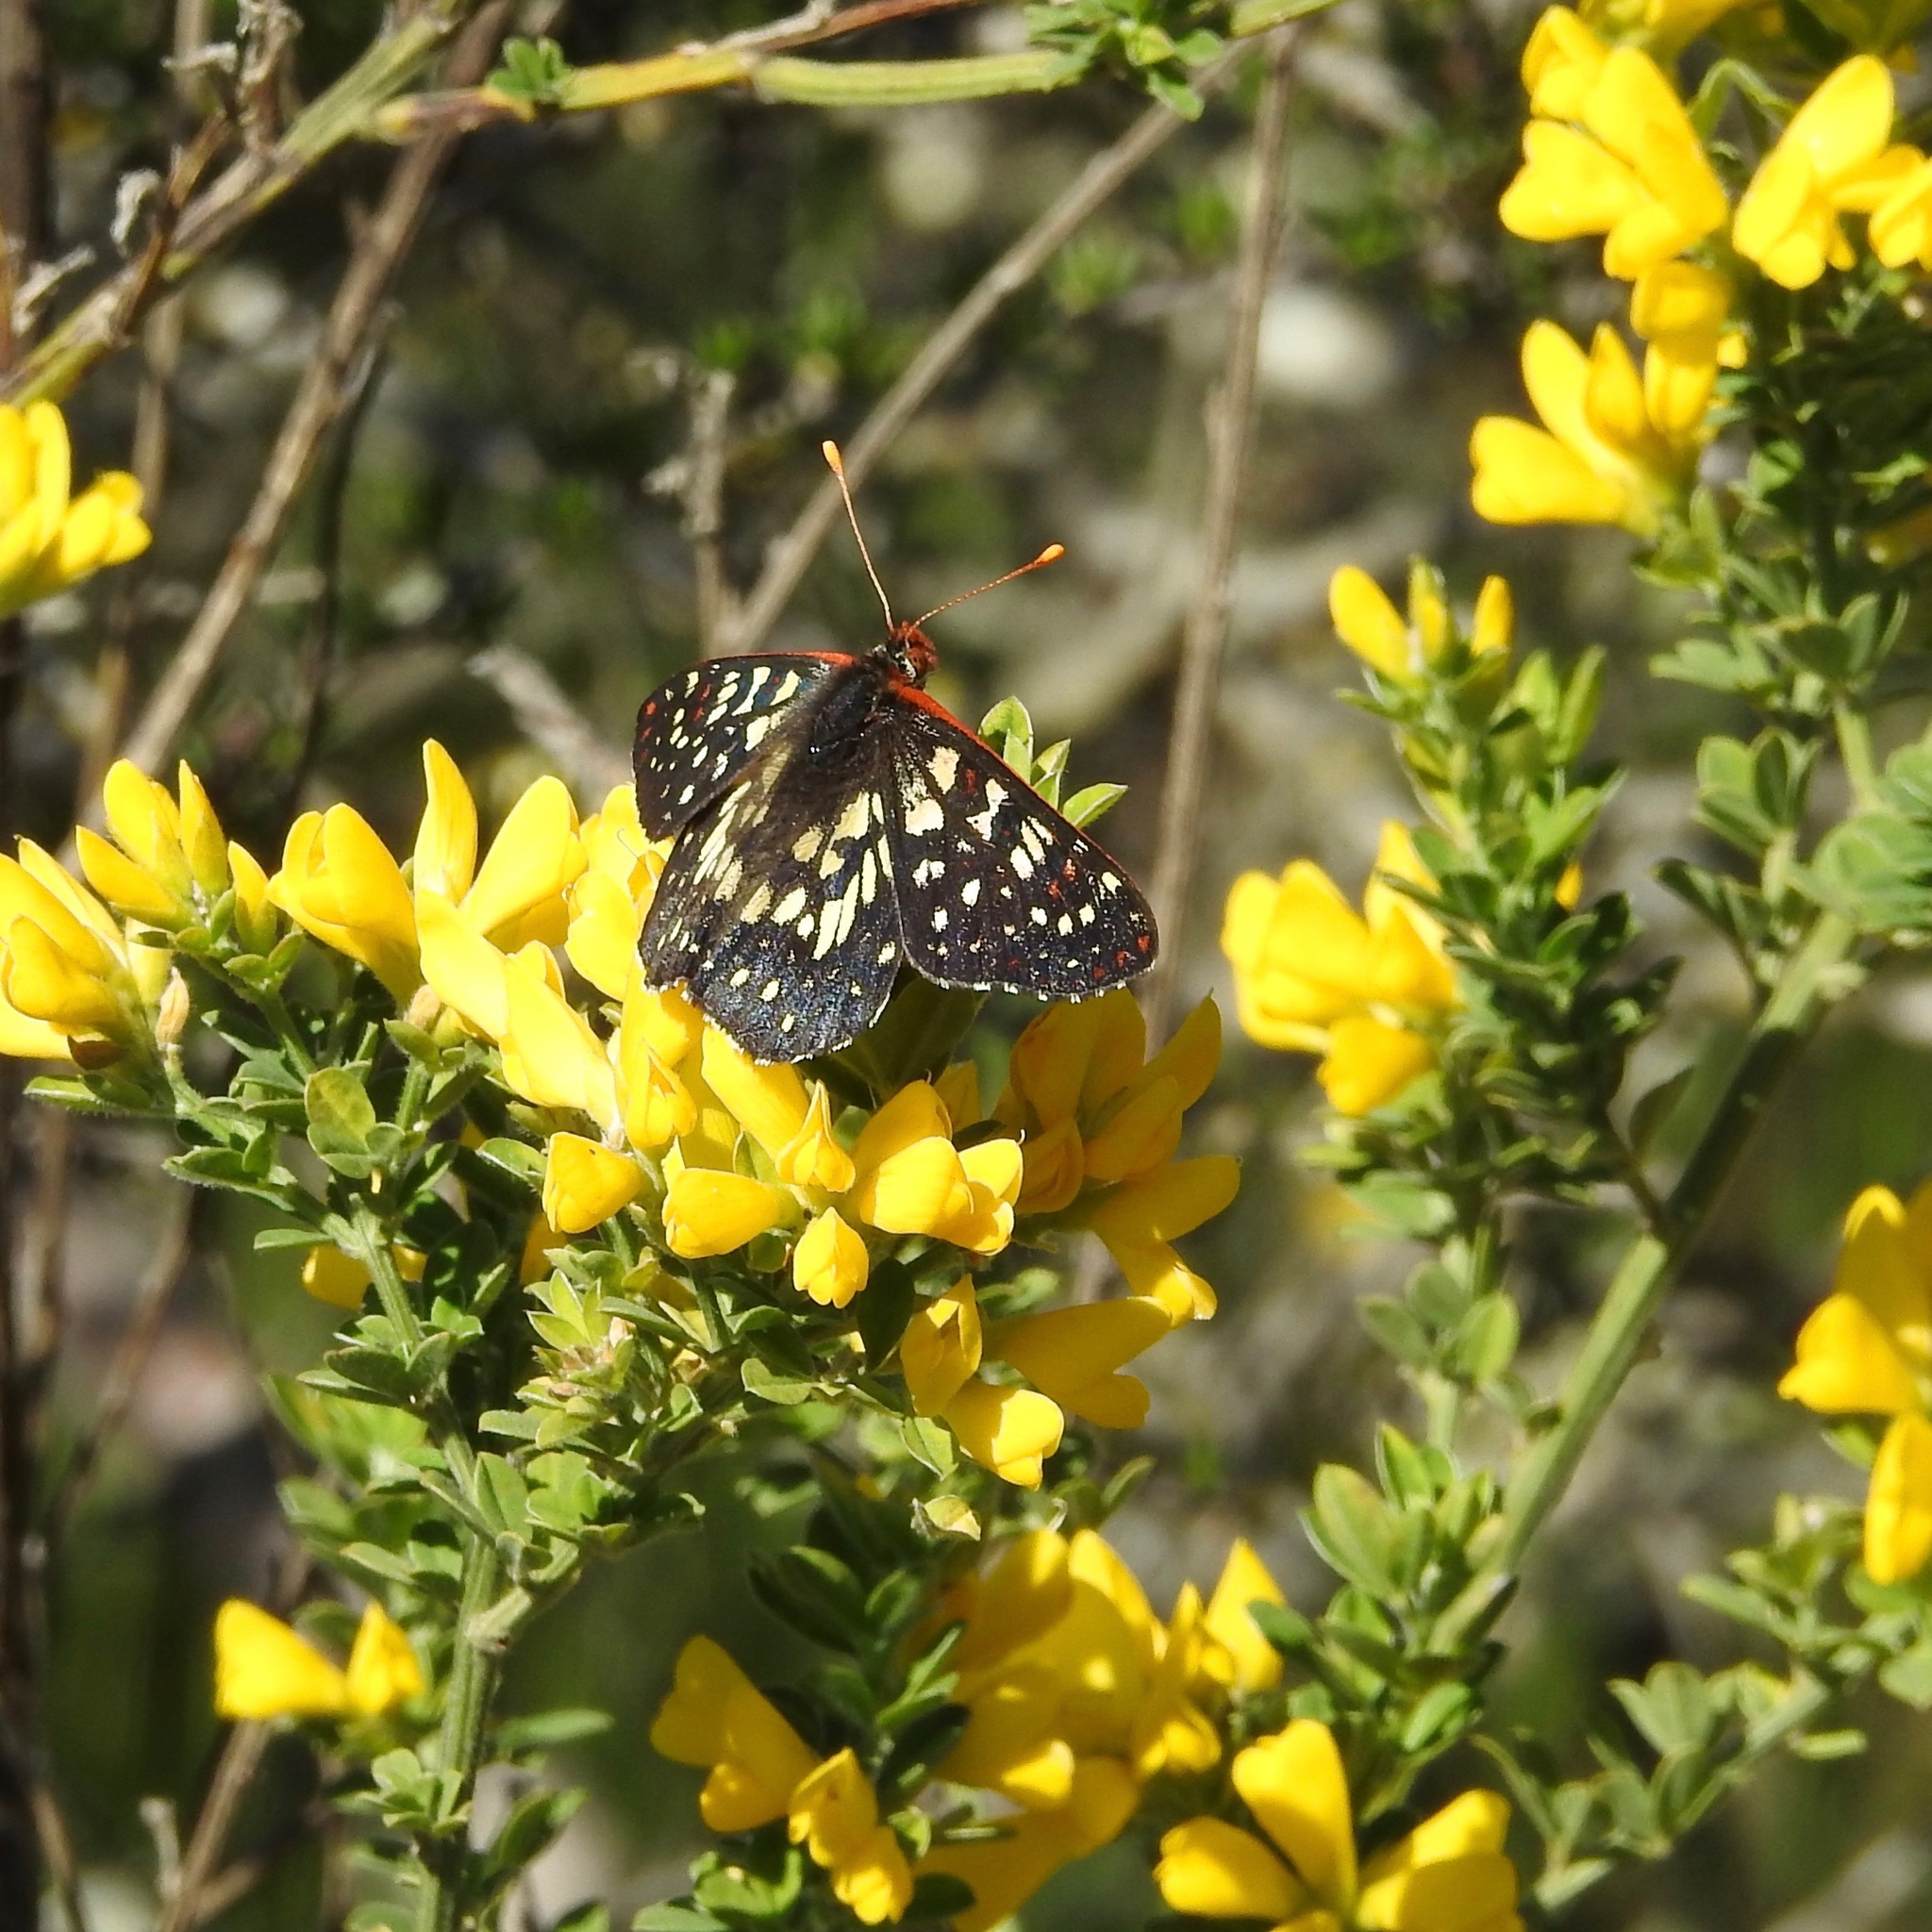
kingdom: Animalia
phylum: Arthropoda
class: Insecta
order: Lepidoptera
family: Nymphalidae
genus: Occidryas
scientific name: Occidryas chalcedona
